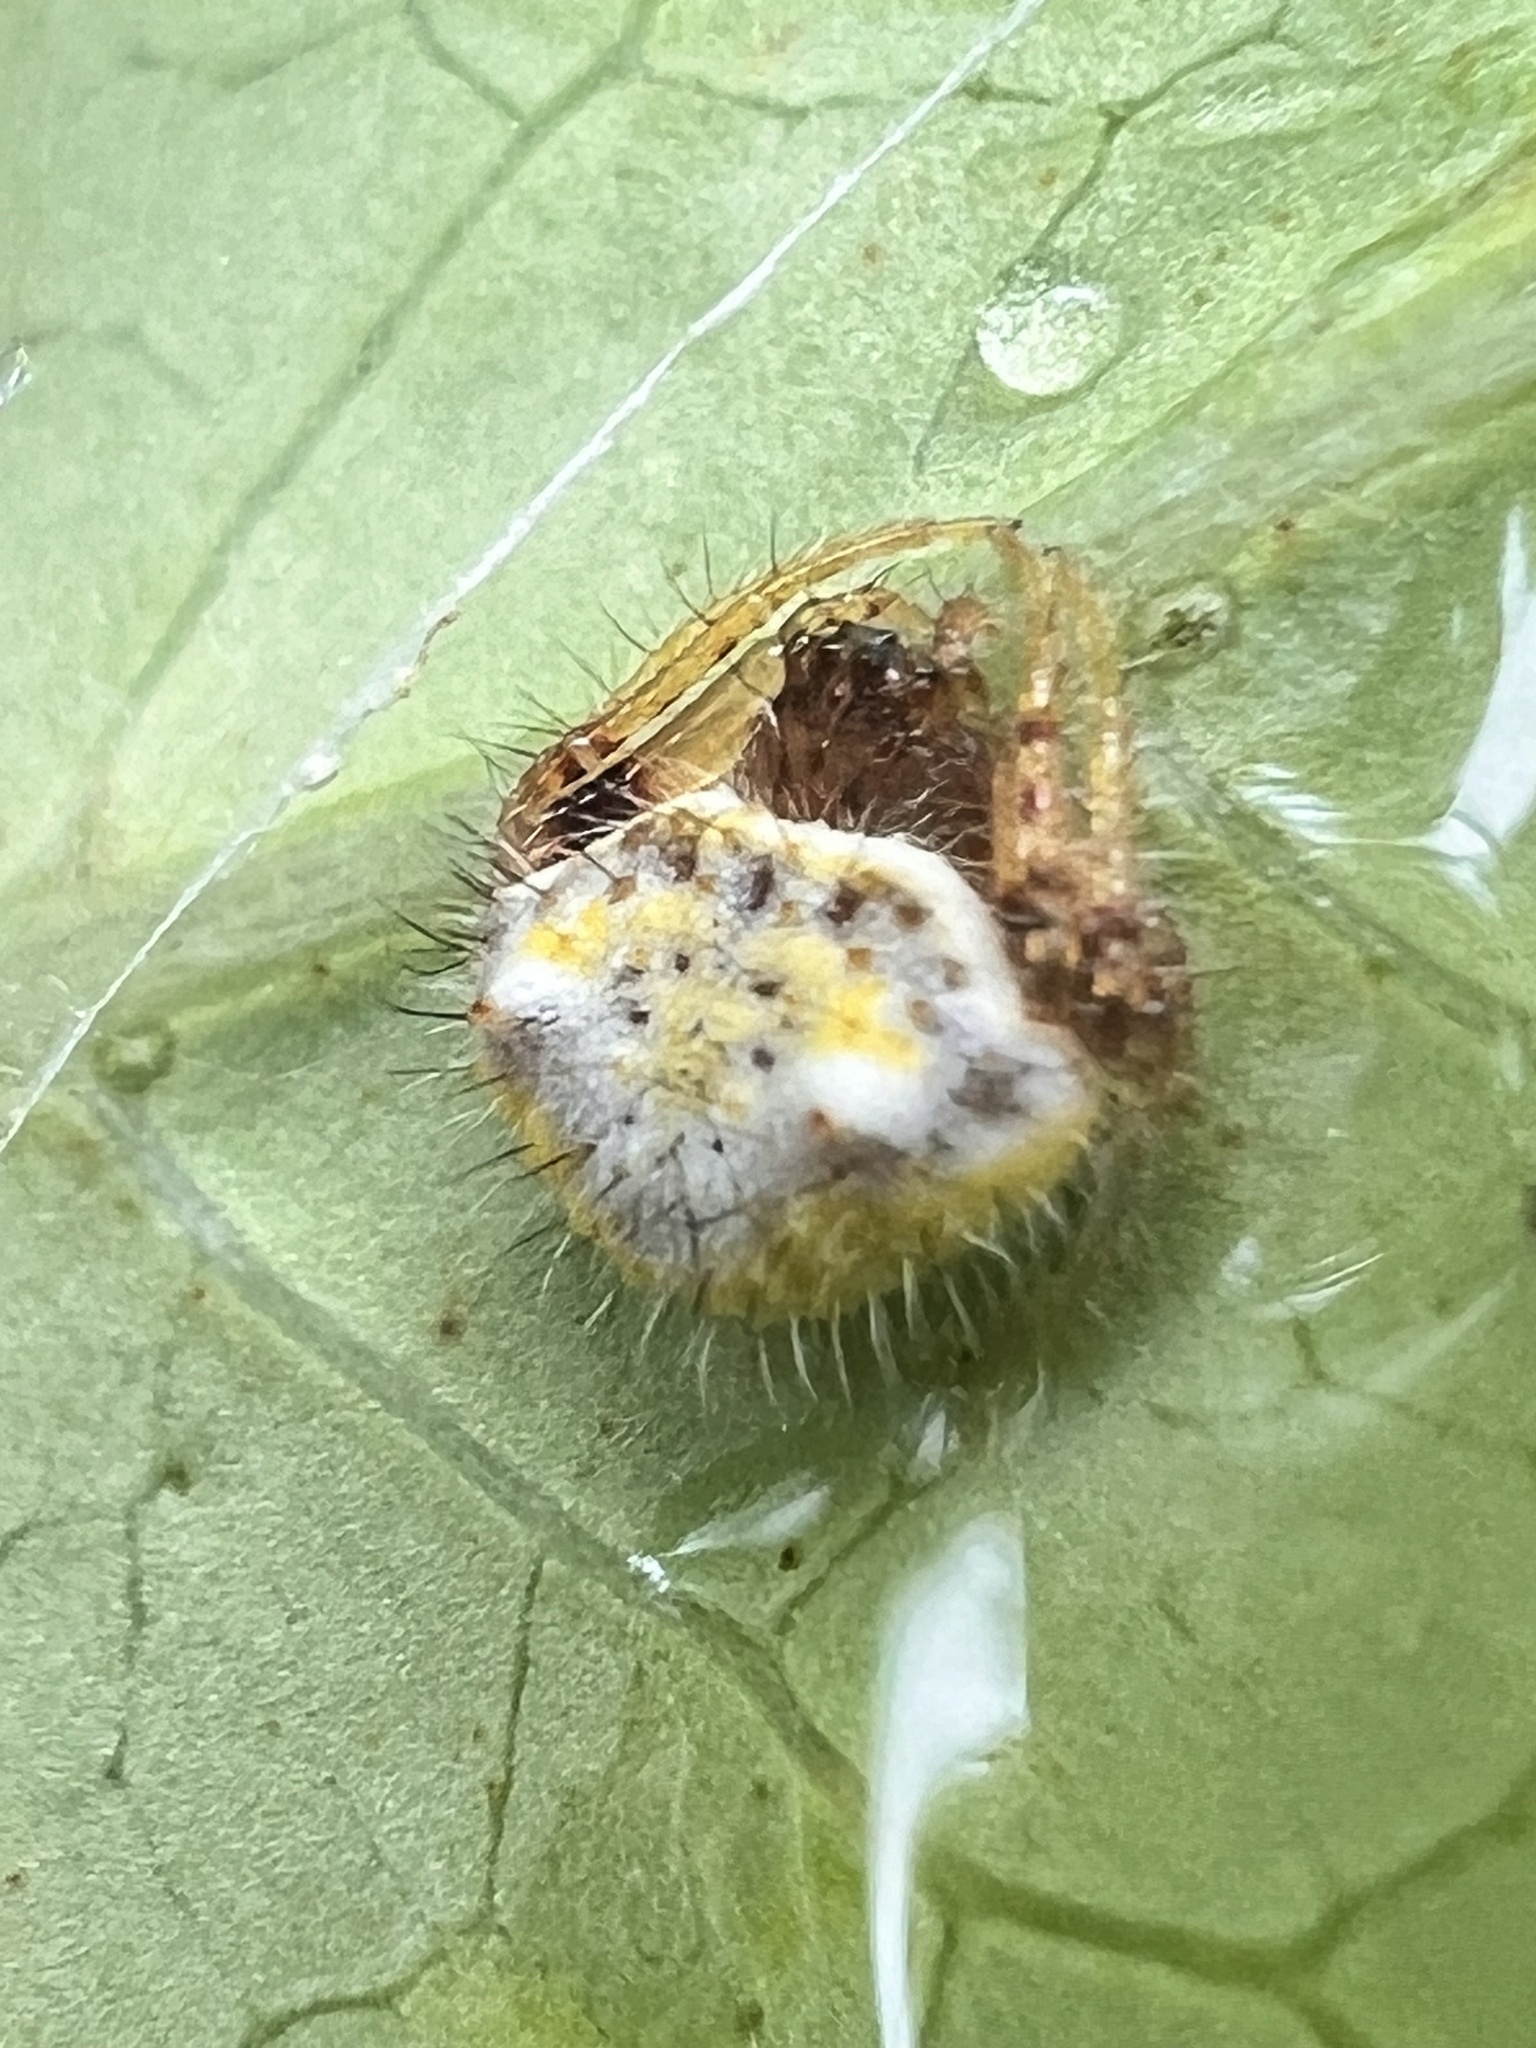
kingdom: Animalia
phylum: Arthropoda
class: Arachnida
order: Araneae
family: Araneidae
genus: Poecilopachys
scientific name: Poecilopachys australasia
